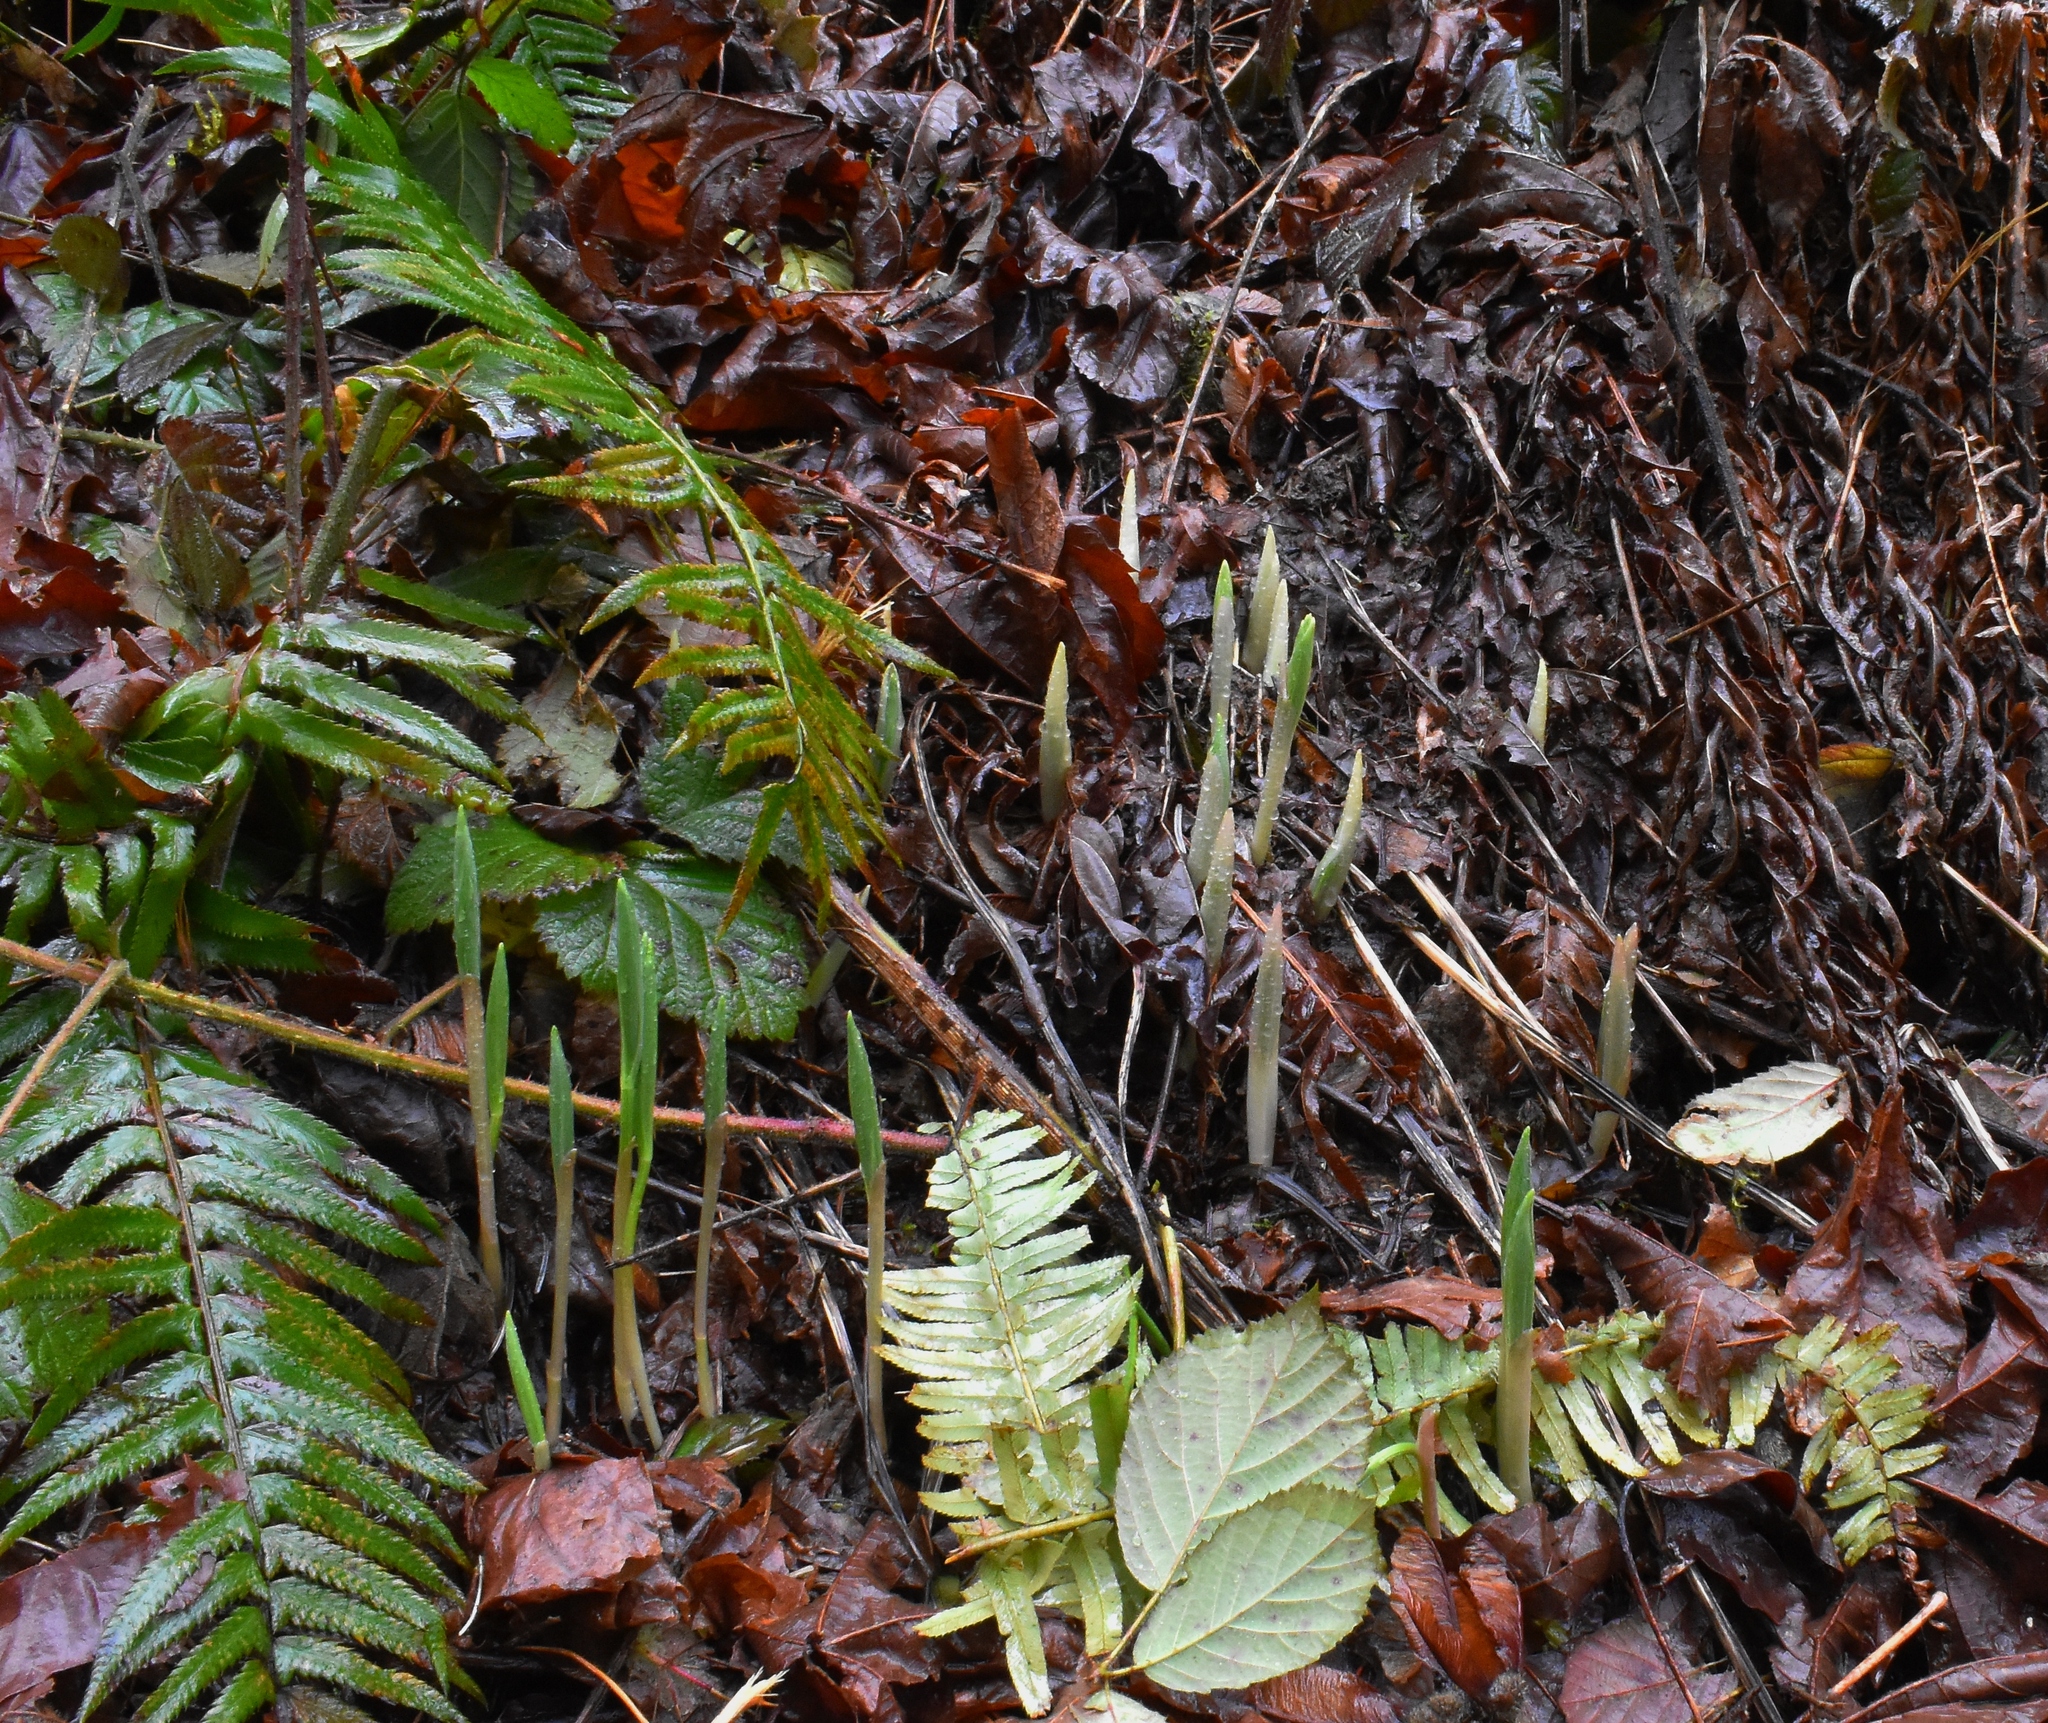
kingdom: Plantae
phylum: Tracheophyta
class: Liliopsida
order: Asparagales
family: Asparagaceae
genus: Maianthemum
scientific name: Maianthemum
